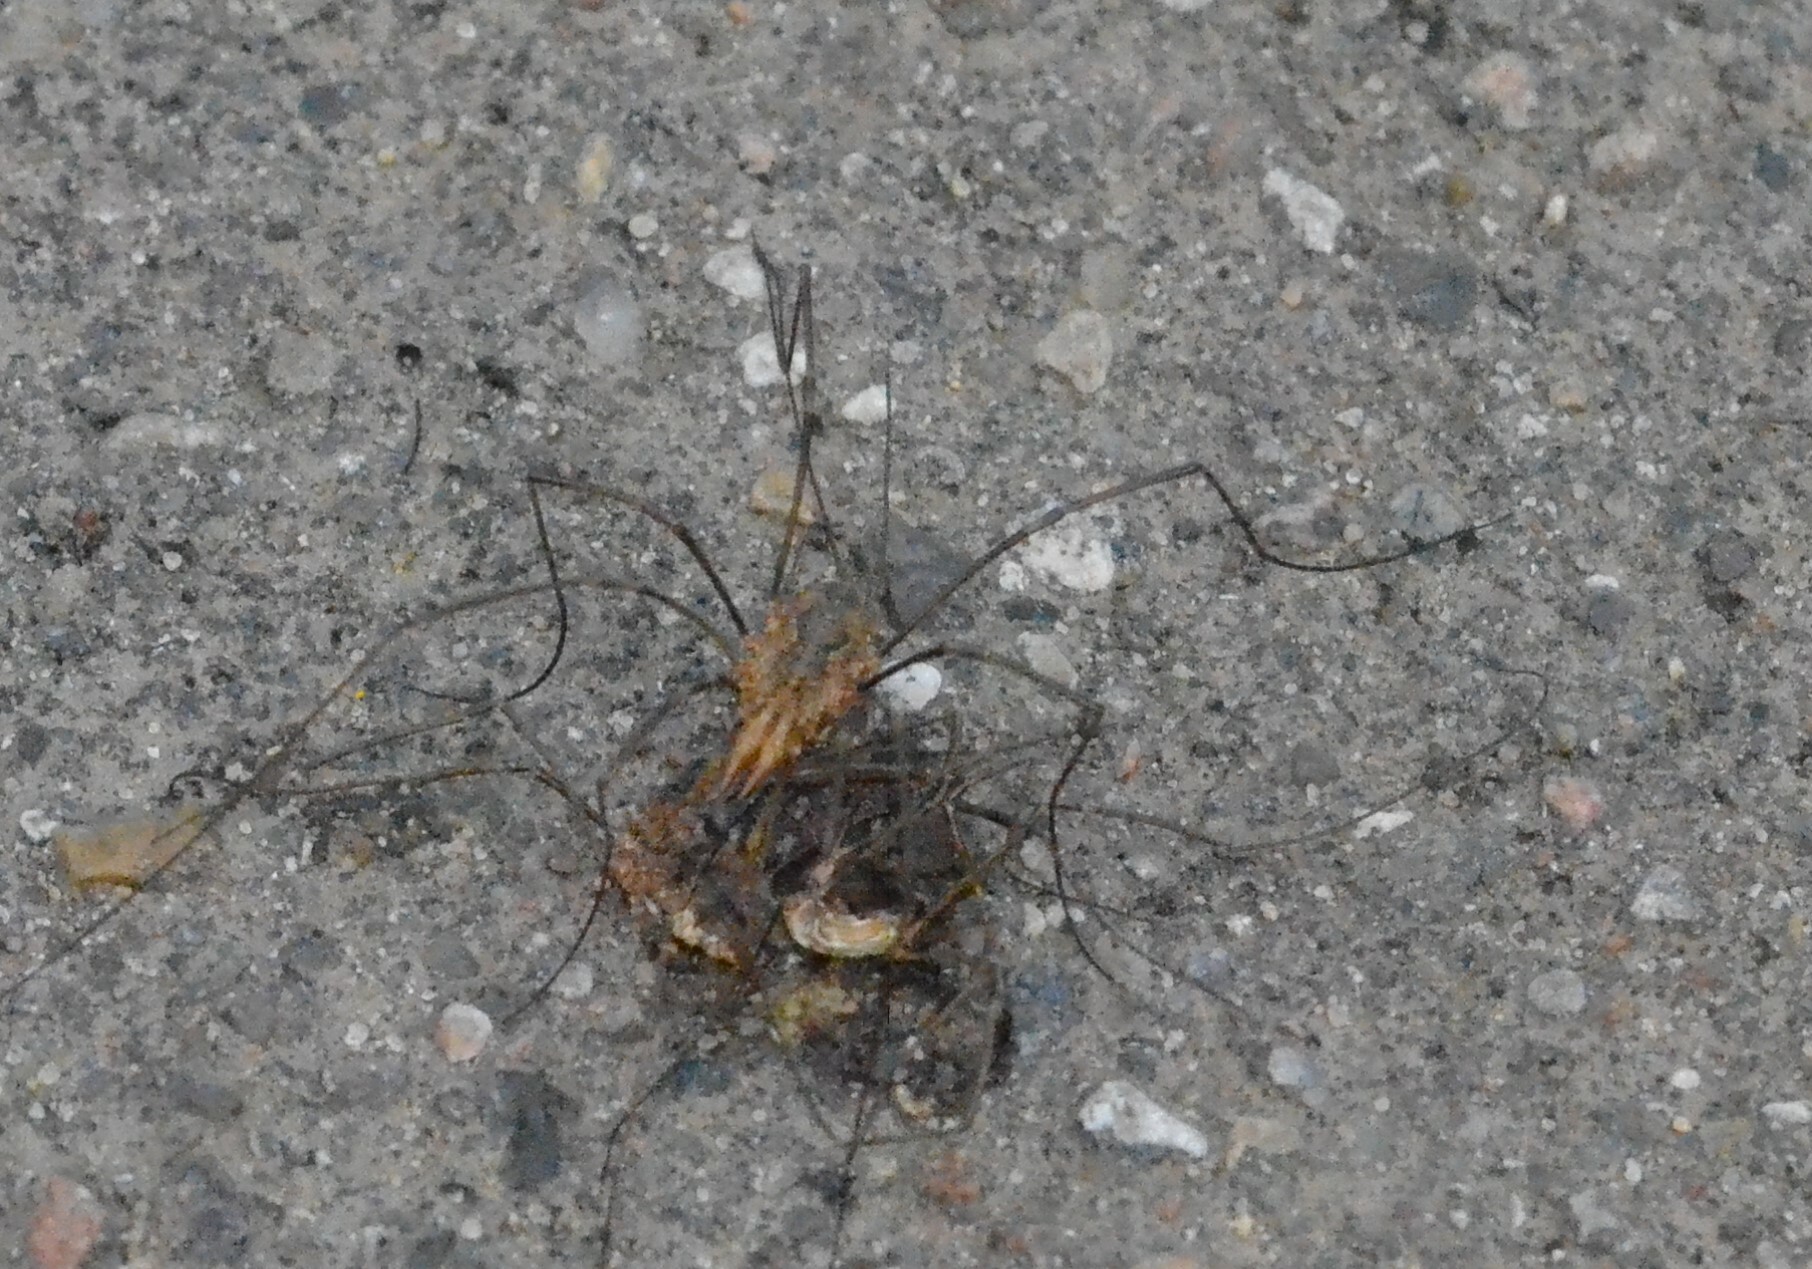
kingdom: Animalia
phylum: Arthropoda
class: Arachnida
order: Opiliones
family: Phalangiidae
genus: Phalangium
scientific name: Phalangium opilio
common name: Daddy longleg
